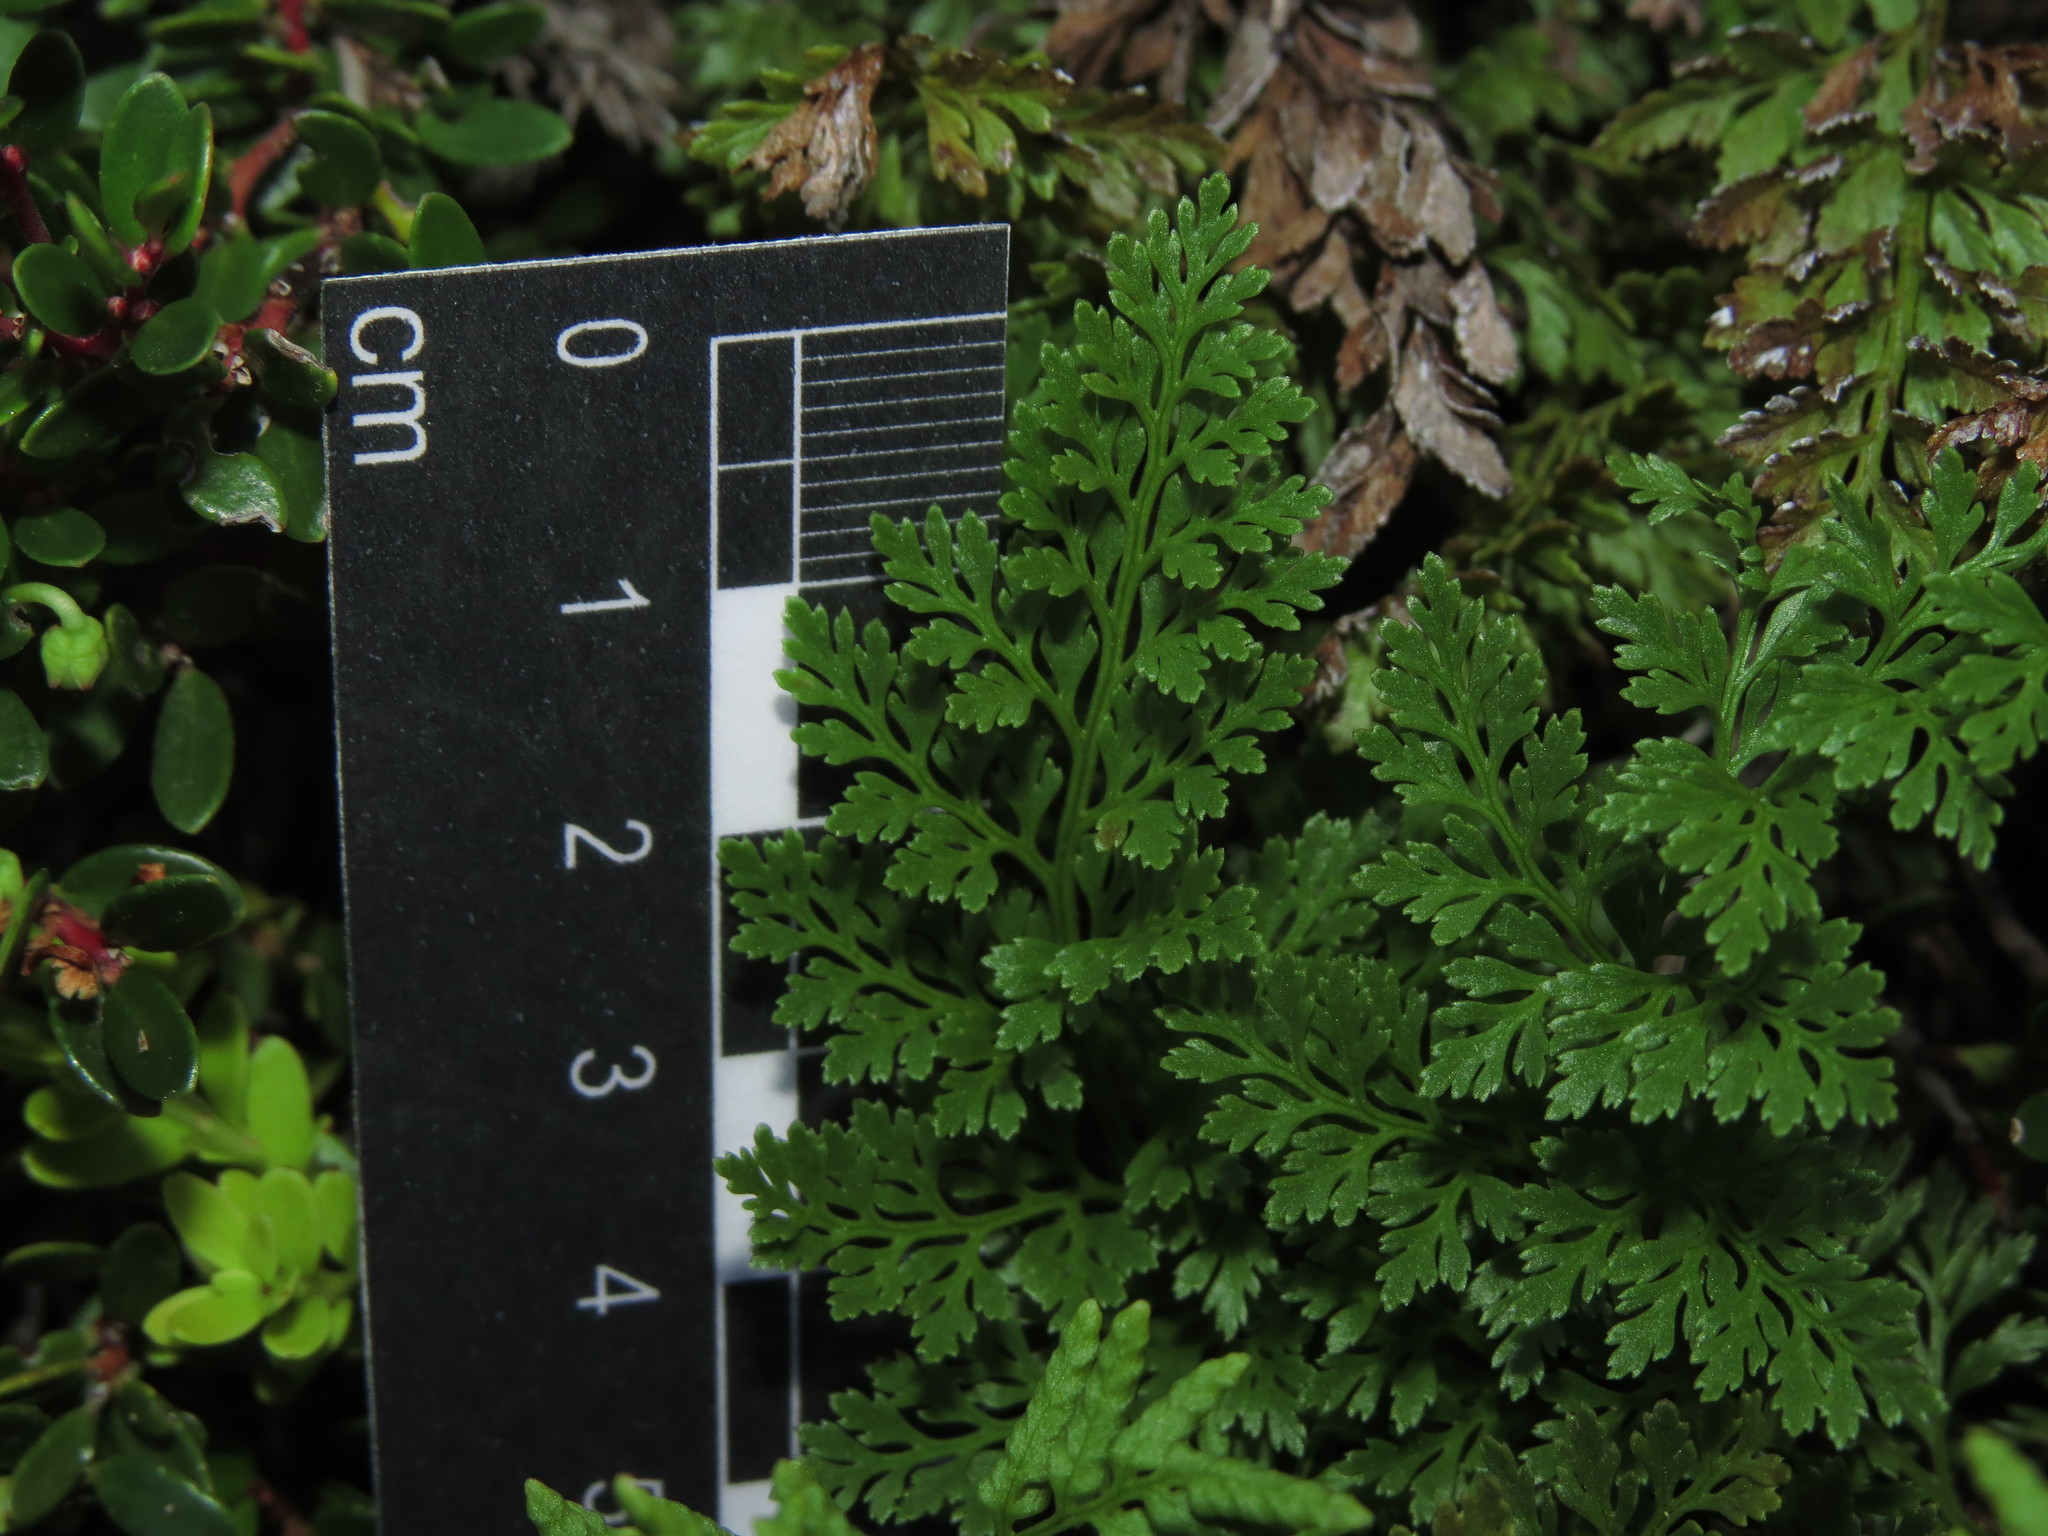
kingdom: Plantae
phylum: Tracheophyta
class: Polypodiopsida
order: Polypodiales
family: Pteridaceae
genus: Cryptogramma
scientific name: Cryptogramma fumariifolia
